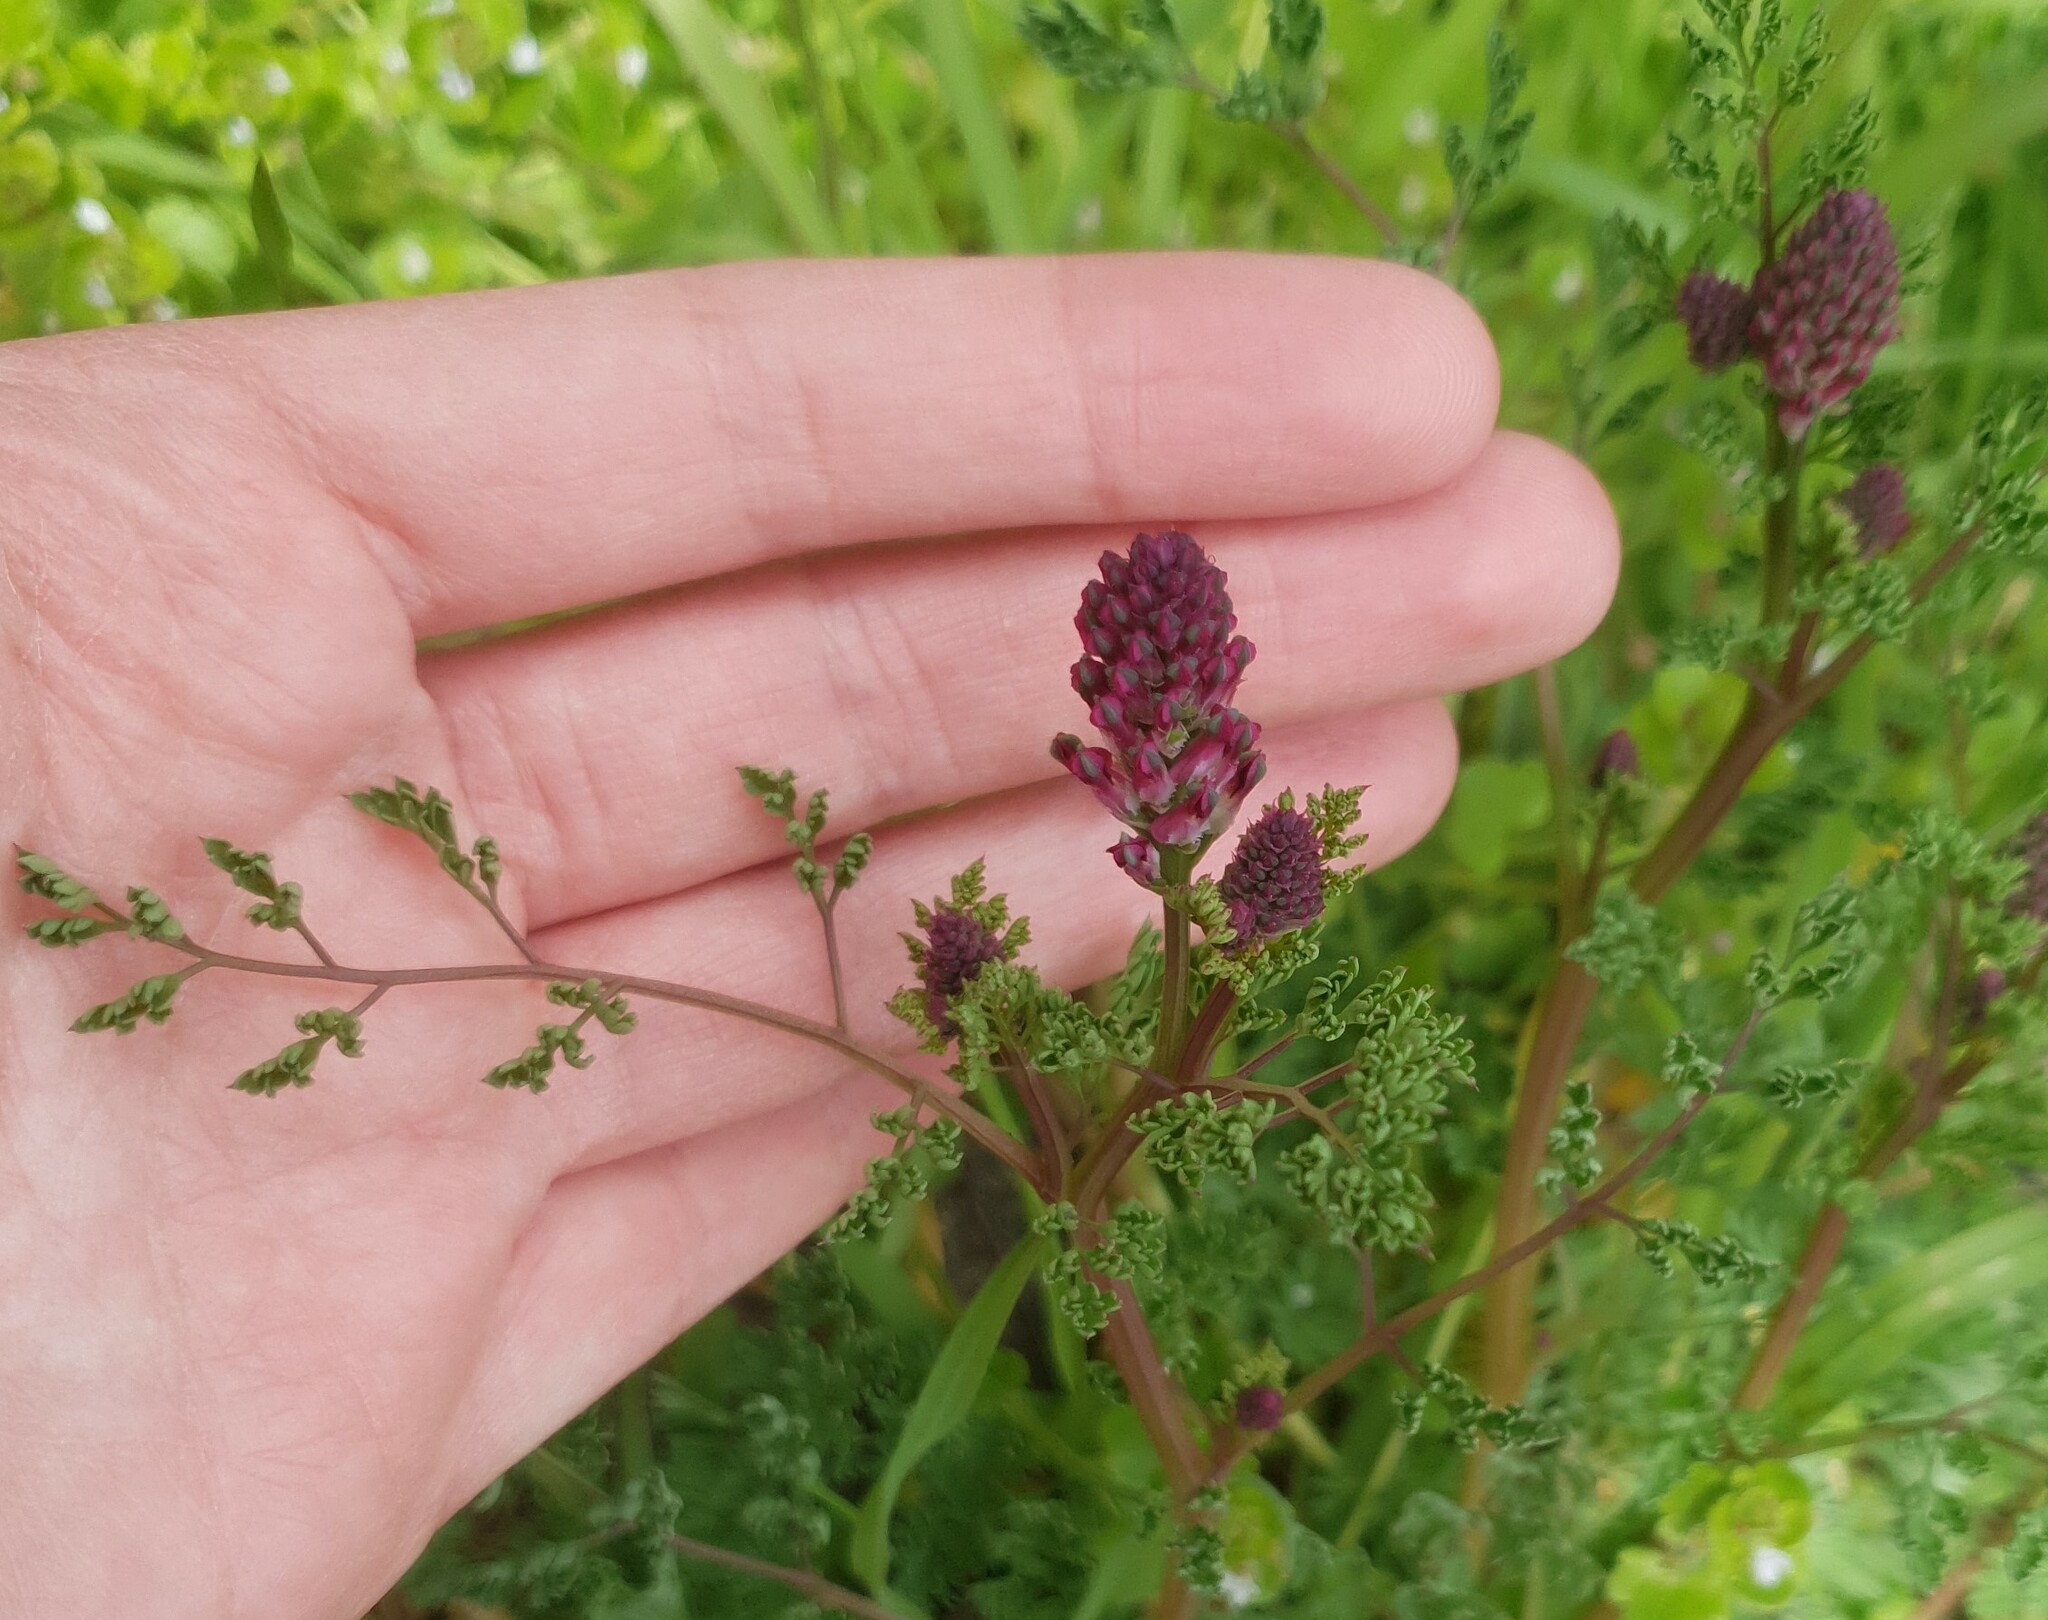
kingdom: Plantae
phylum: Tracheophyta
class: Magnoliopsida
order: Ranunculales
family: Papaveraceae
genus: Fumaria
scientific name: Fumaria officinalis
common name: Common fumitory
